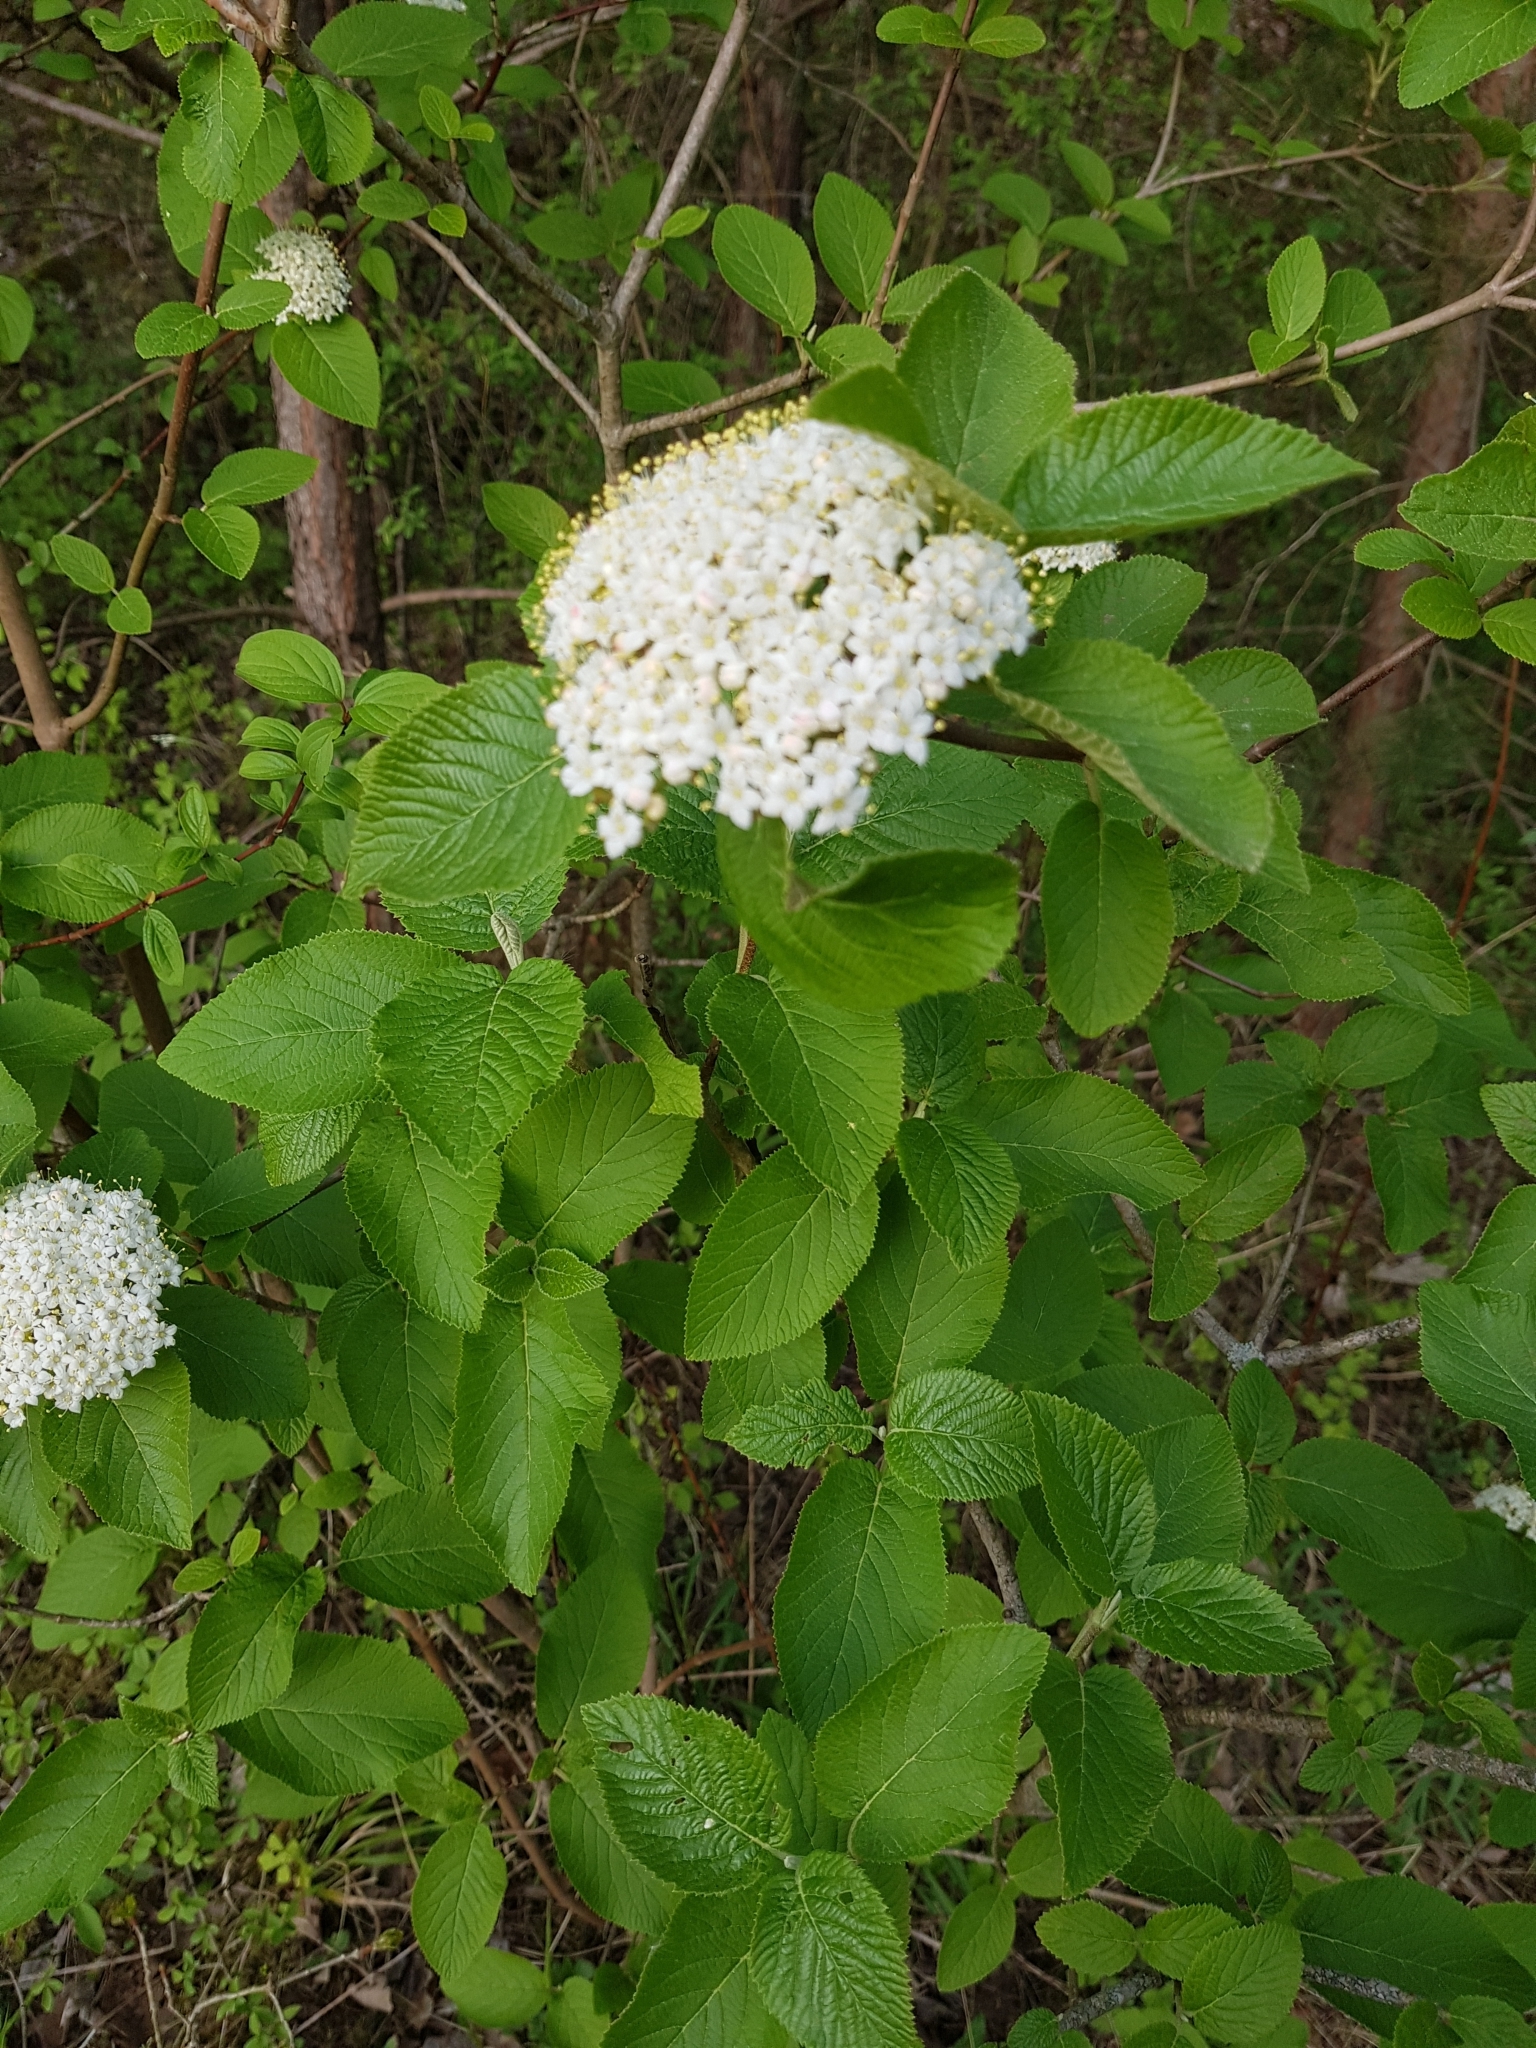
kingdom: Plantae
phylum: Tracheophyta
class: Magnoliopsida
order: Dipsacales
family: Viburnaceae
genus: Viburnum
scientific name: Viburnum lantana
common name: Wayfaring tree
